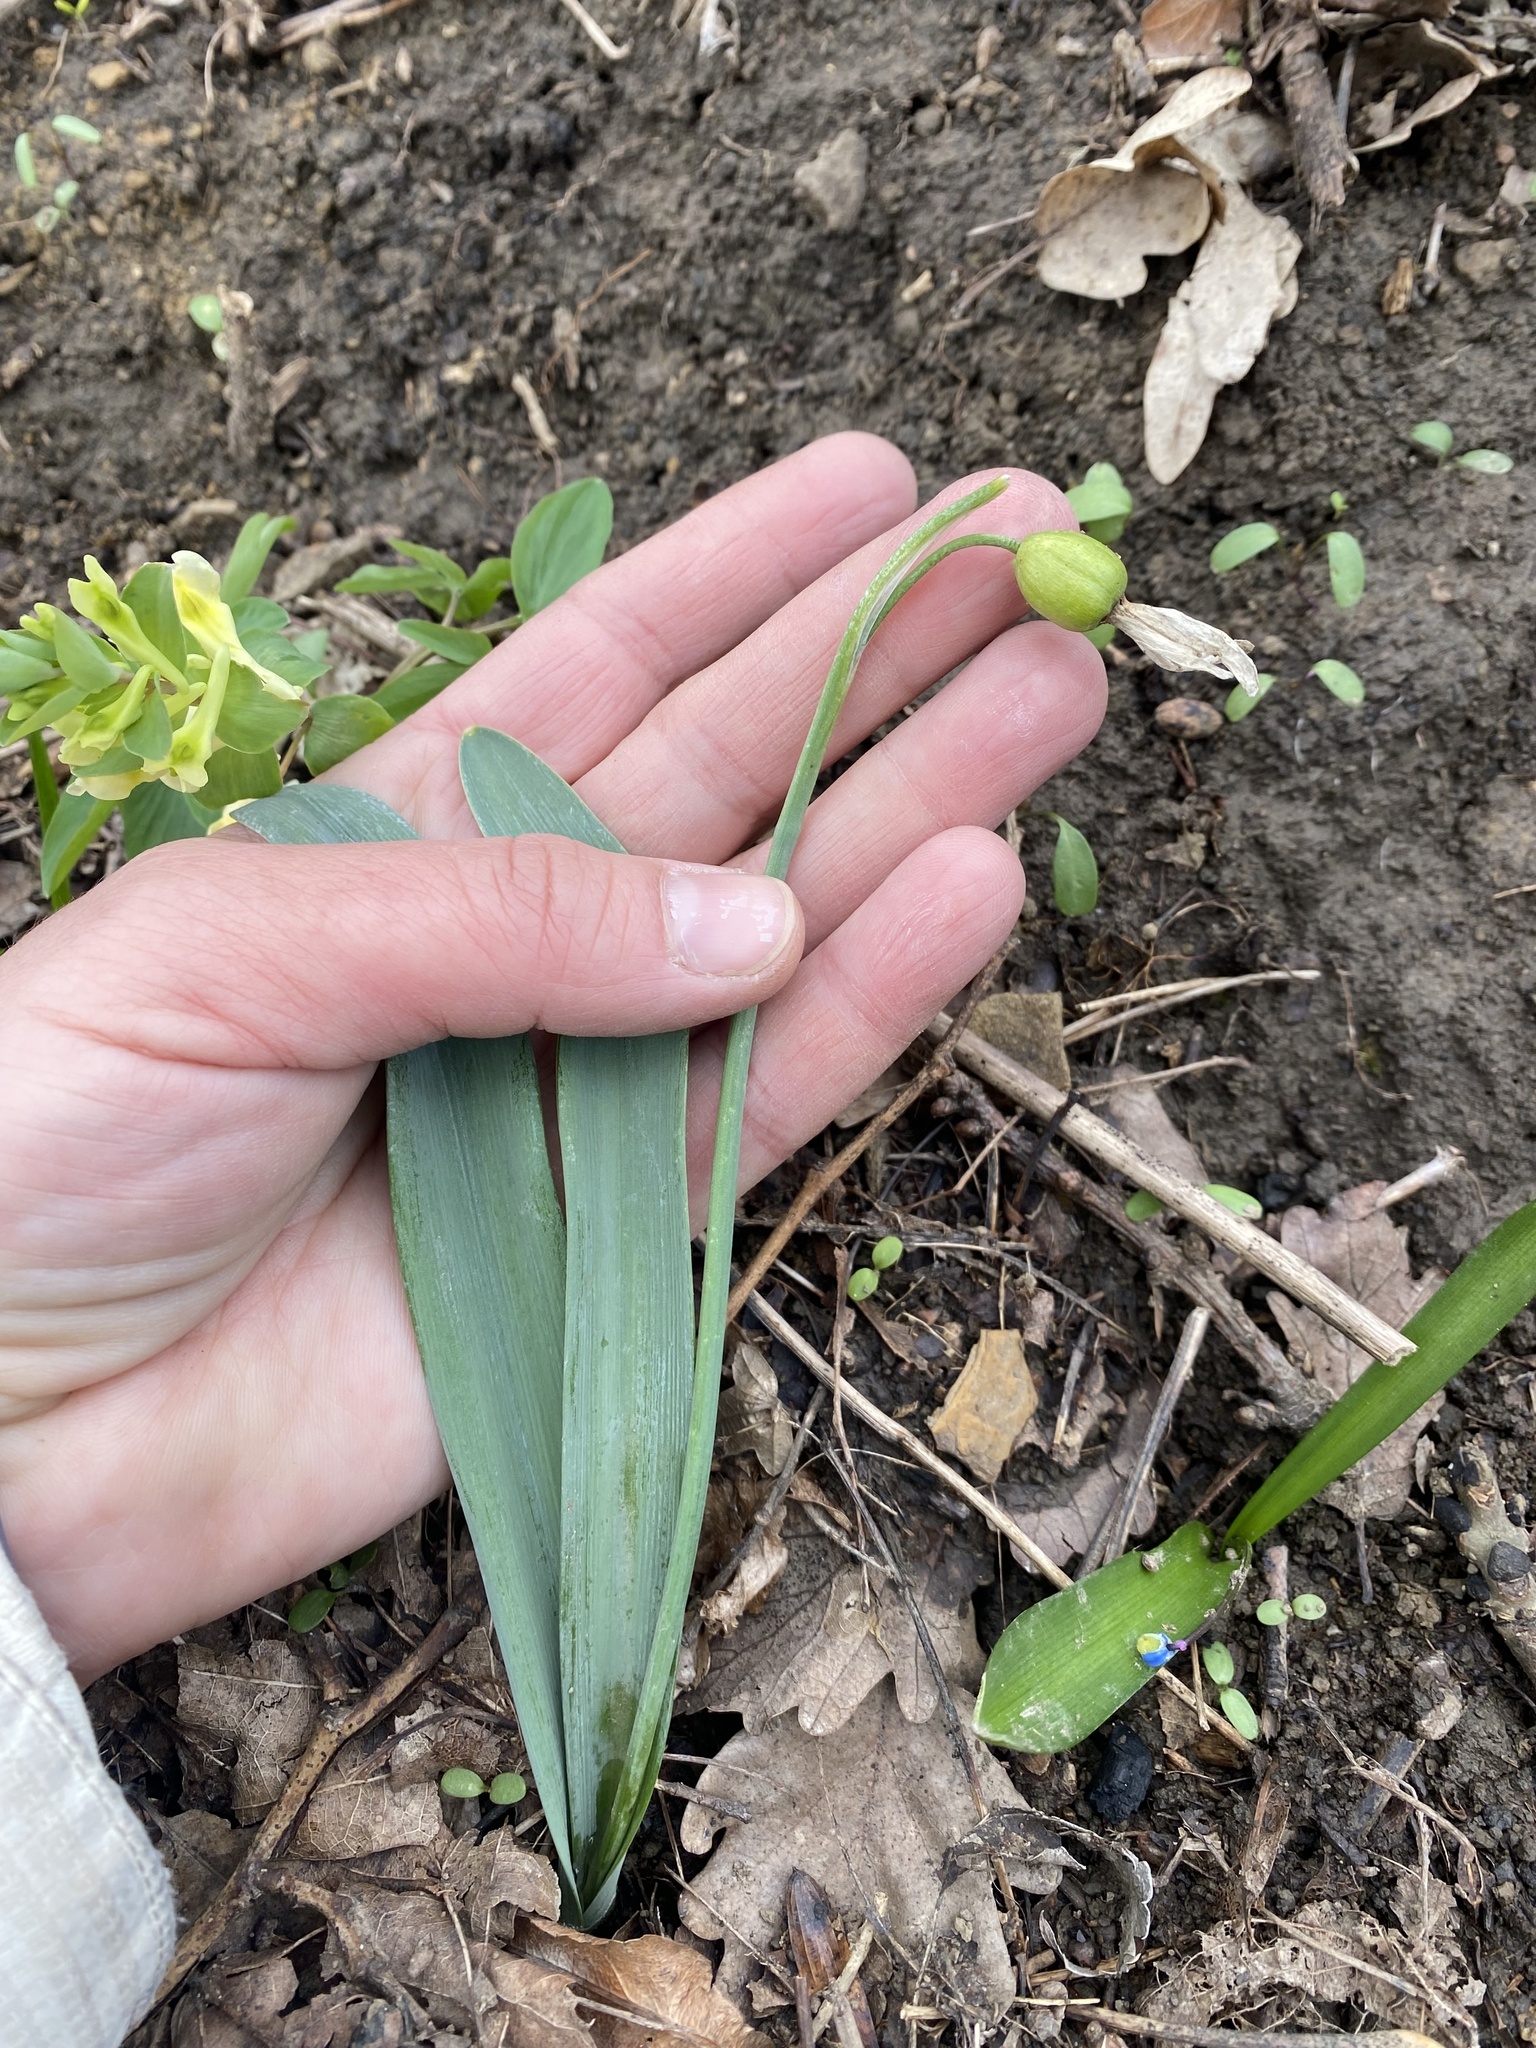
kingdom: Plantae
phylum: Tracheophyta
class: Liliopsida
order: Asparagales
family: Amaryllidaceae
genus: Galanthus
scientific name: Galanthus alpinus
